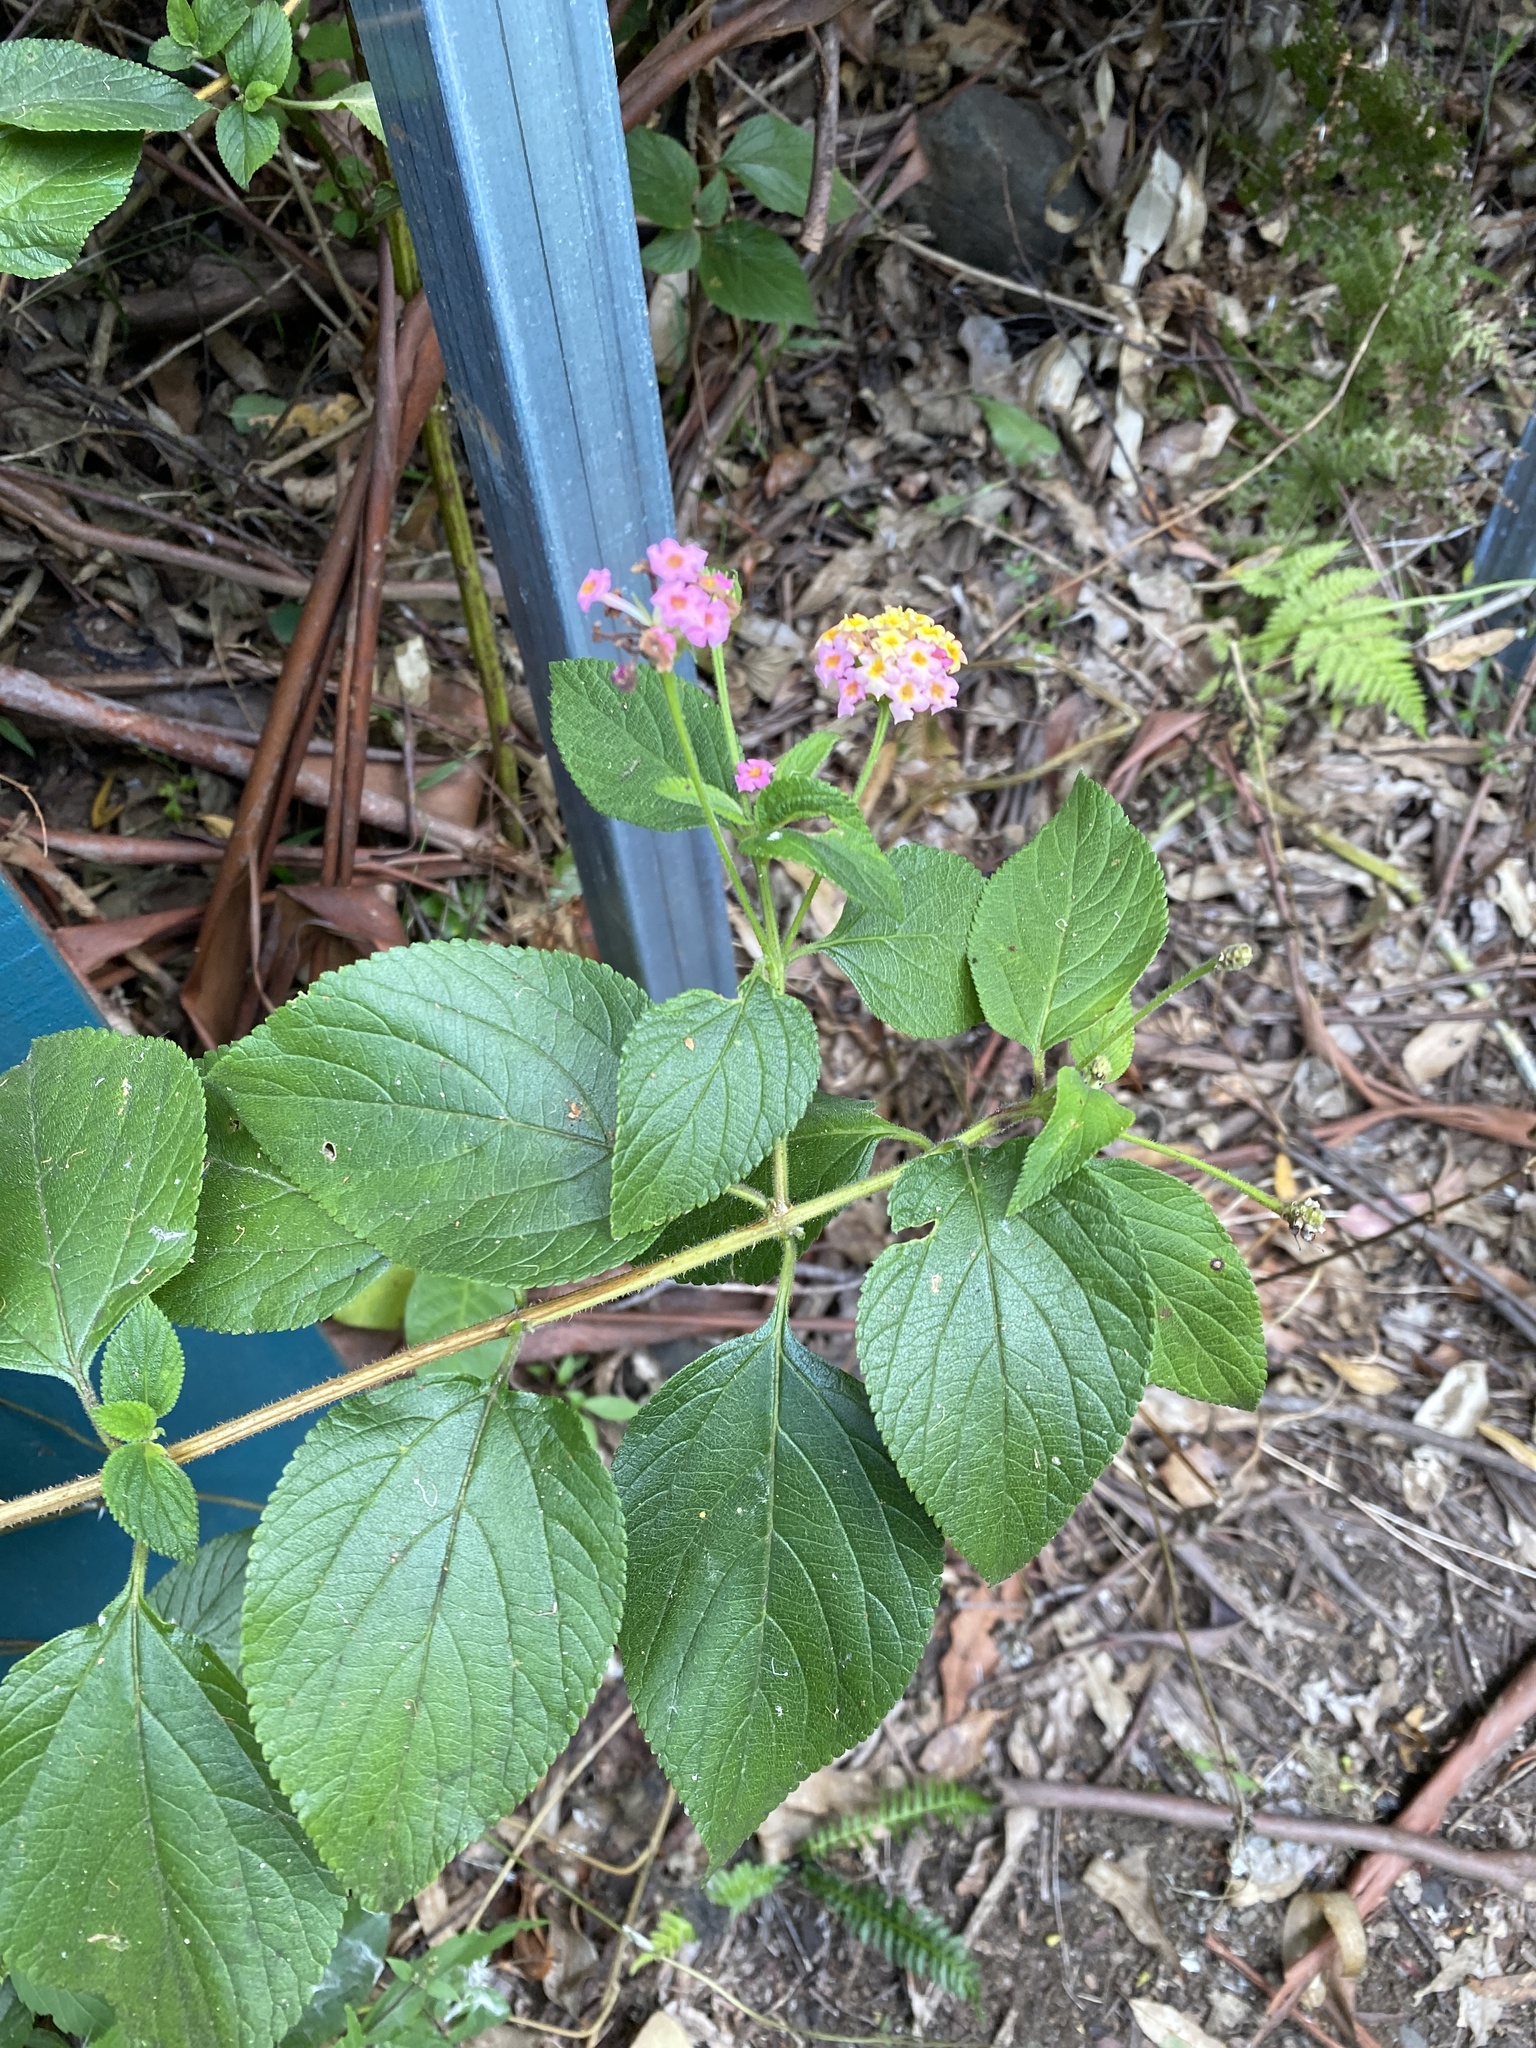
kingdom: Plantae
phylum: Tracheophyta
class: Magnoliopsida
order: Lamiales
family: Verbenaceae
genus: Lantana
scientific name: Lantana camara
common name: Lantana
